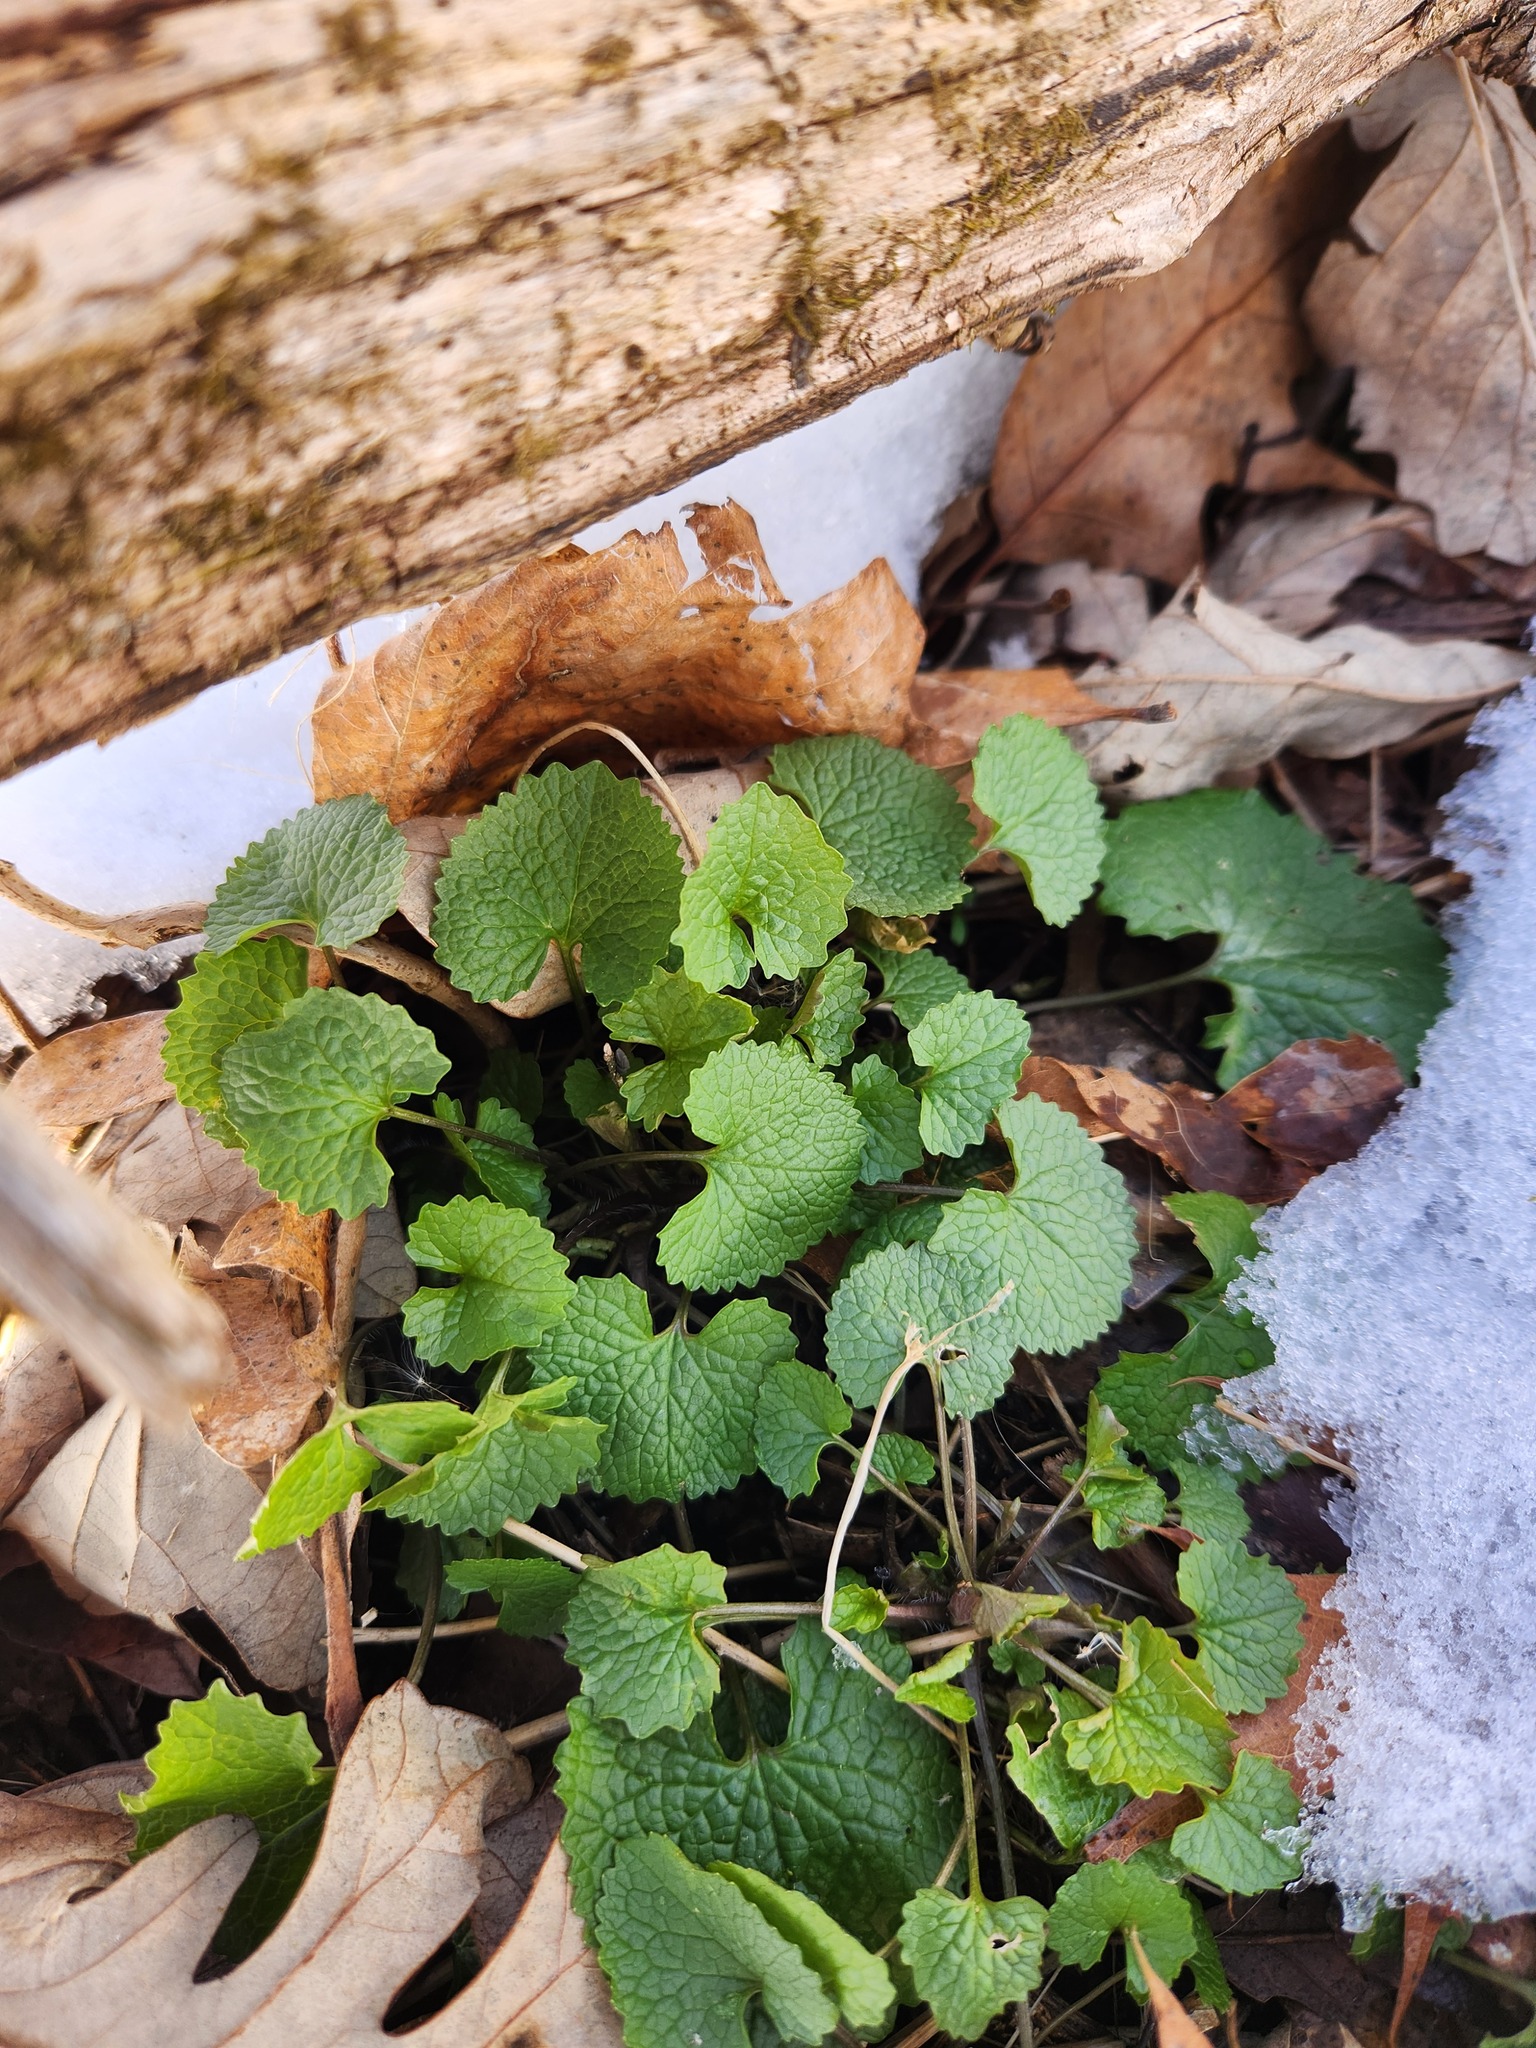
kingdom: Plantae
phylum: Tracheophyta
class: Magnoliopsida
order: Brassicales
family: Brassicaceae
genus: Alliaria
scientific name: Alliaria petiolata
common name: Garlic mustard
